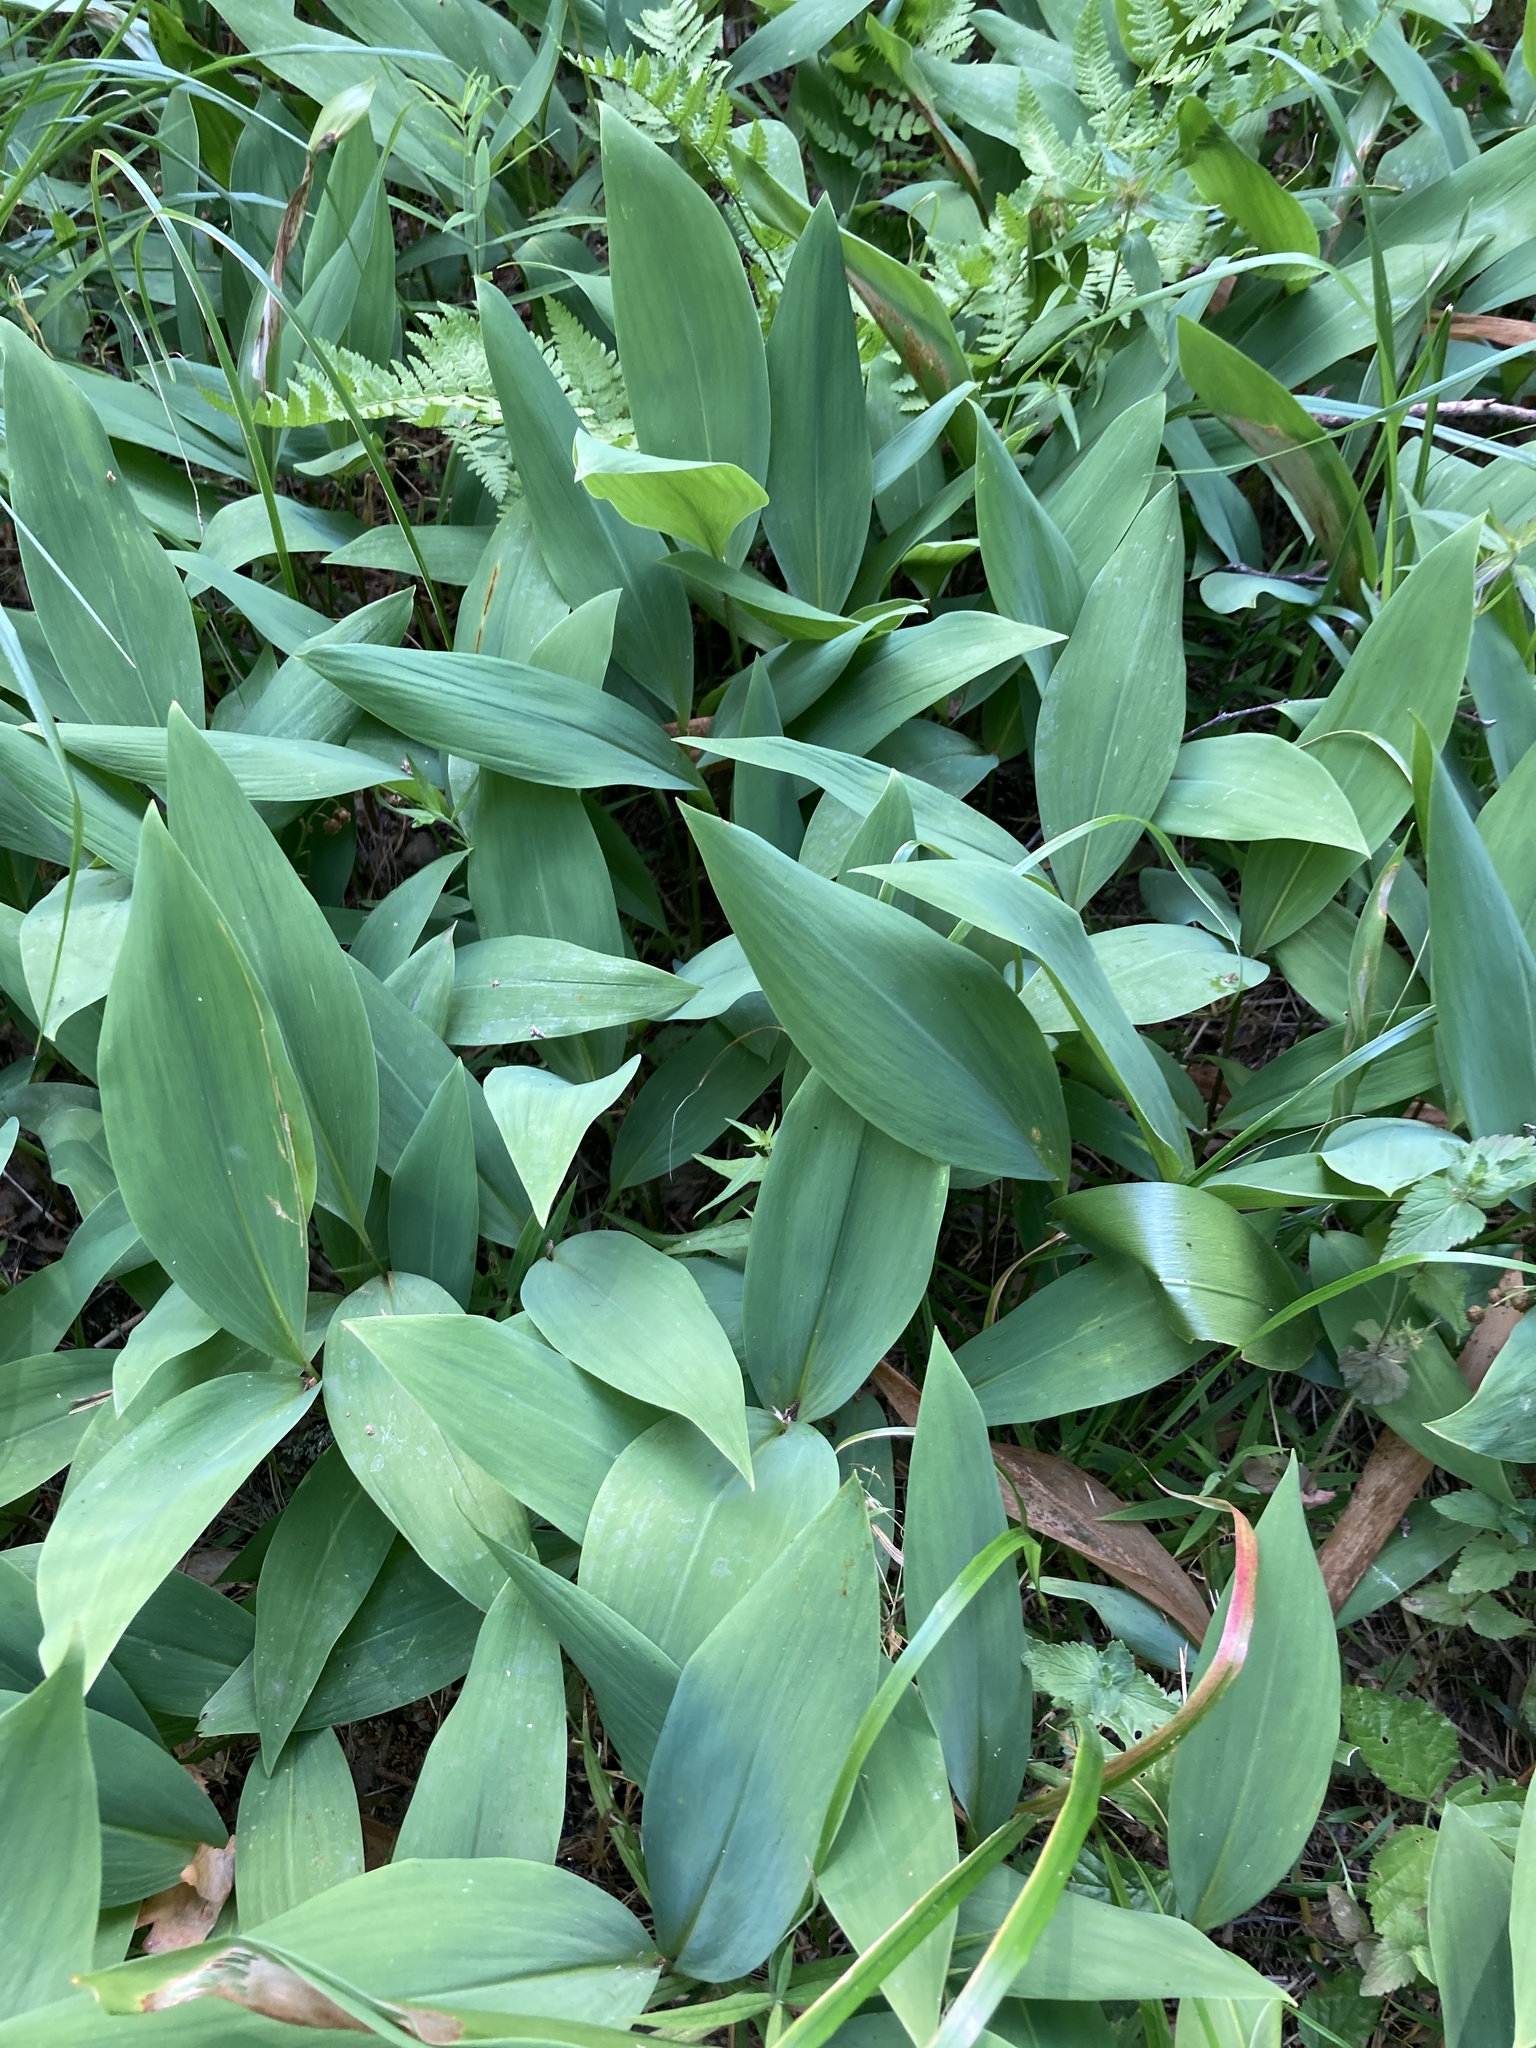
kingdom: Plantae
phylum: Tracheophyta
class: Liliopsida
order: Asparagales
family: Asparagaceae
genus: Convallaria
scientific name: Convallaria majalis
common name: Lily-of-the-valley
